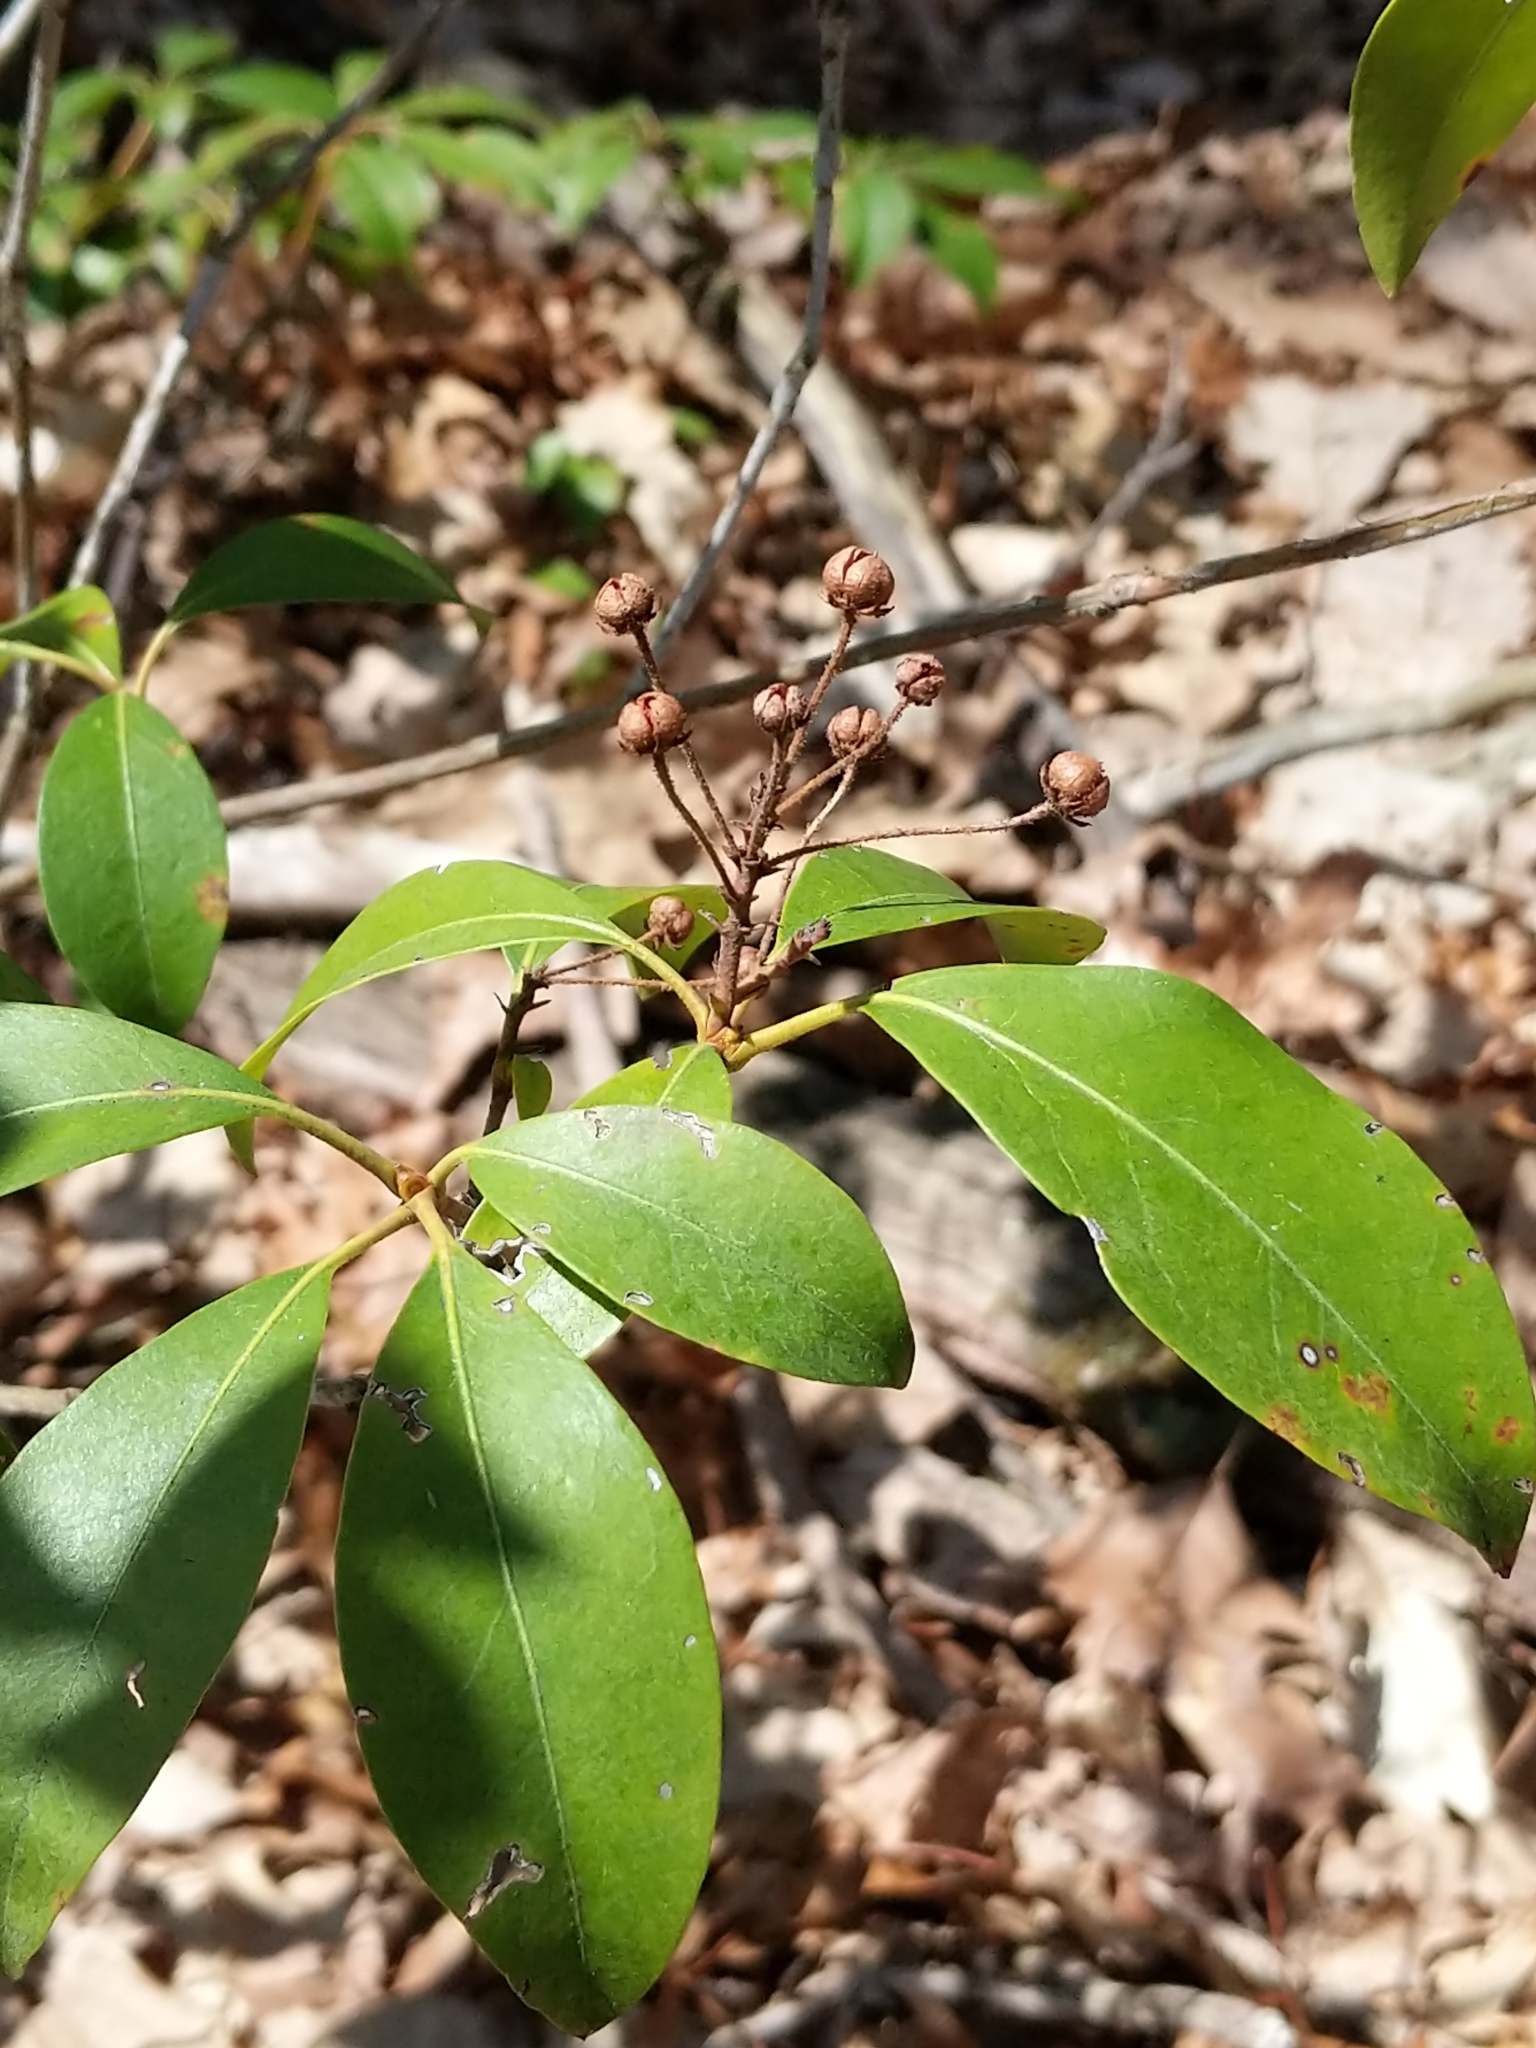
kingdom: Plantae
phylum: Tracheophyta
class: Magnoliopsida
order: Ericales
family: Ericaceae
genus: Kalmia
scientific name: Kalmia latifolia
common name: Mountain-laurel
